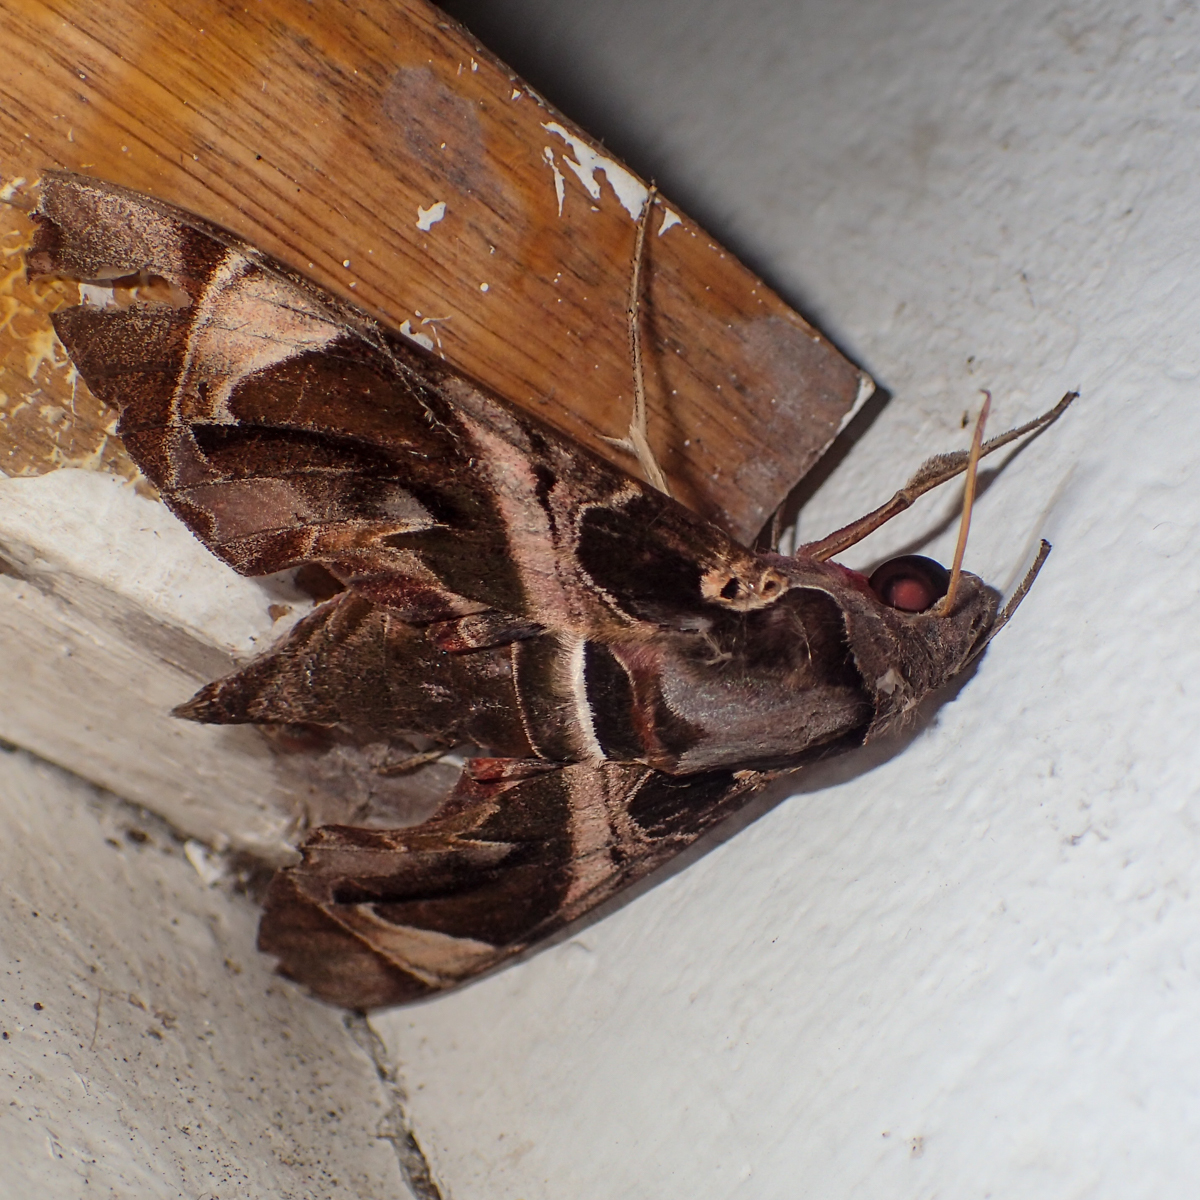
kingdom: Animalia
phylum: Arthropoda
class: Insecta
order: Lepidoptera
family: Sphingidae
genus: Daphnis
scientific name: Daphnis hypothous
